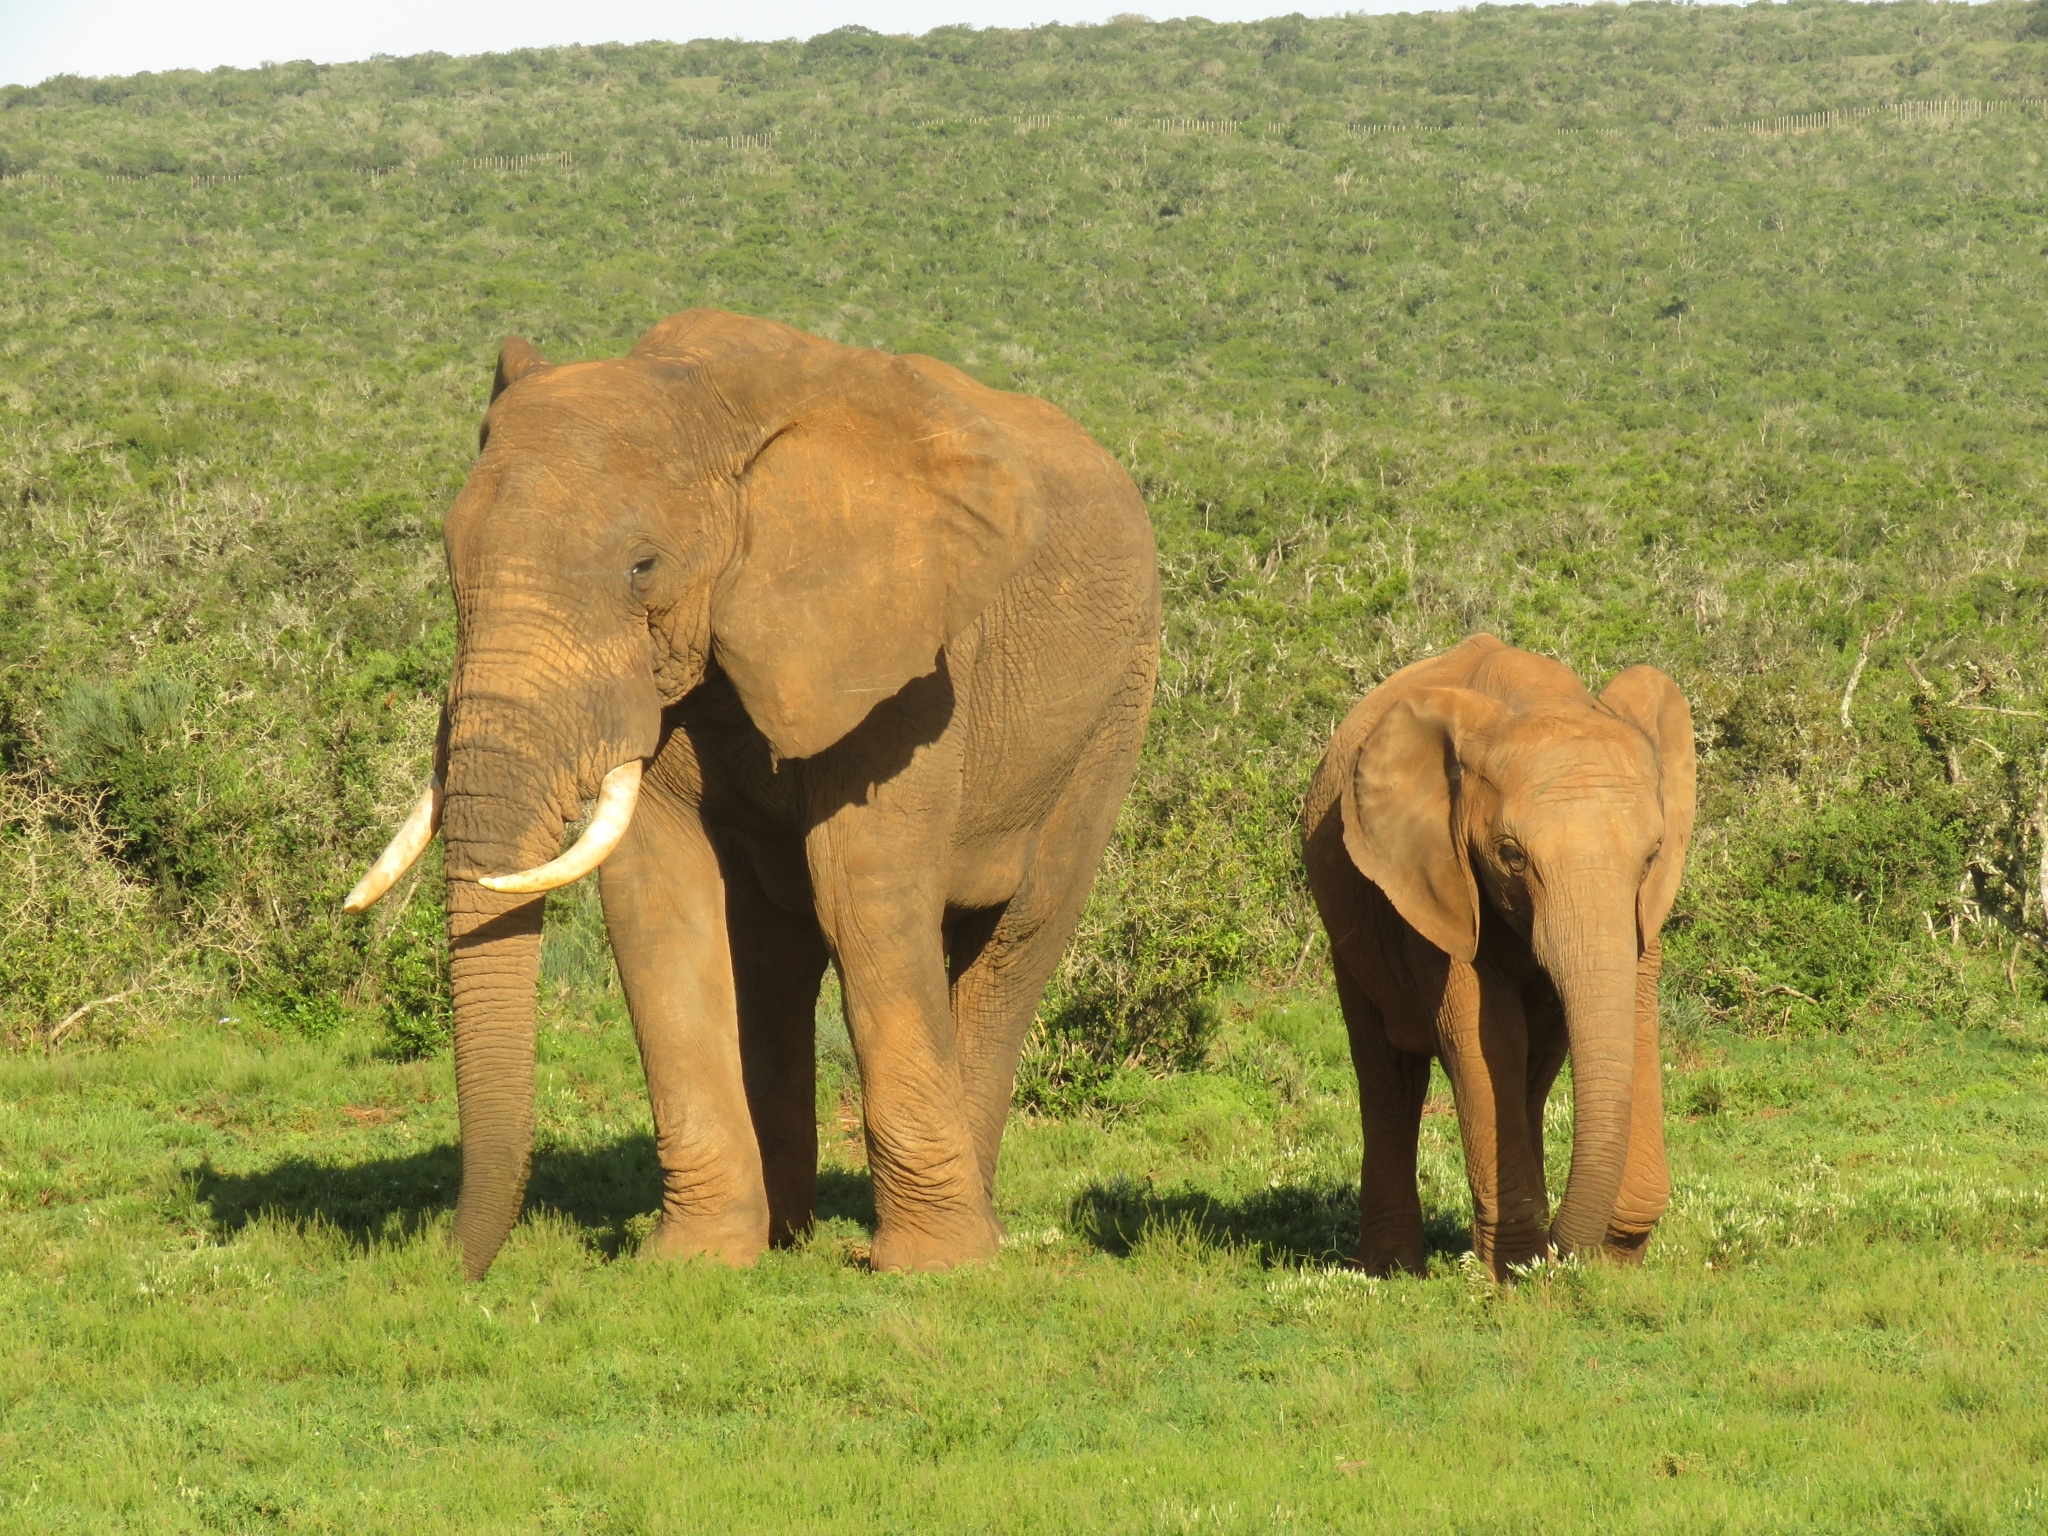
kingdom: Animalia
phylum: Chordata
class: Mammalia
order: Proboscidea
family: Elephantidae
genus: Loxodonta
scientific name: Loxodonta africana
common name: African elephant
